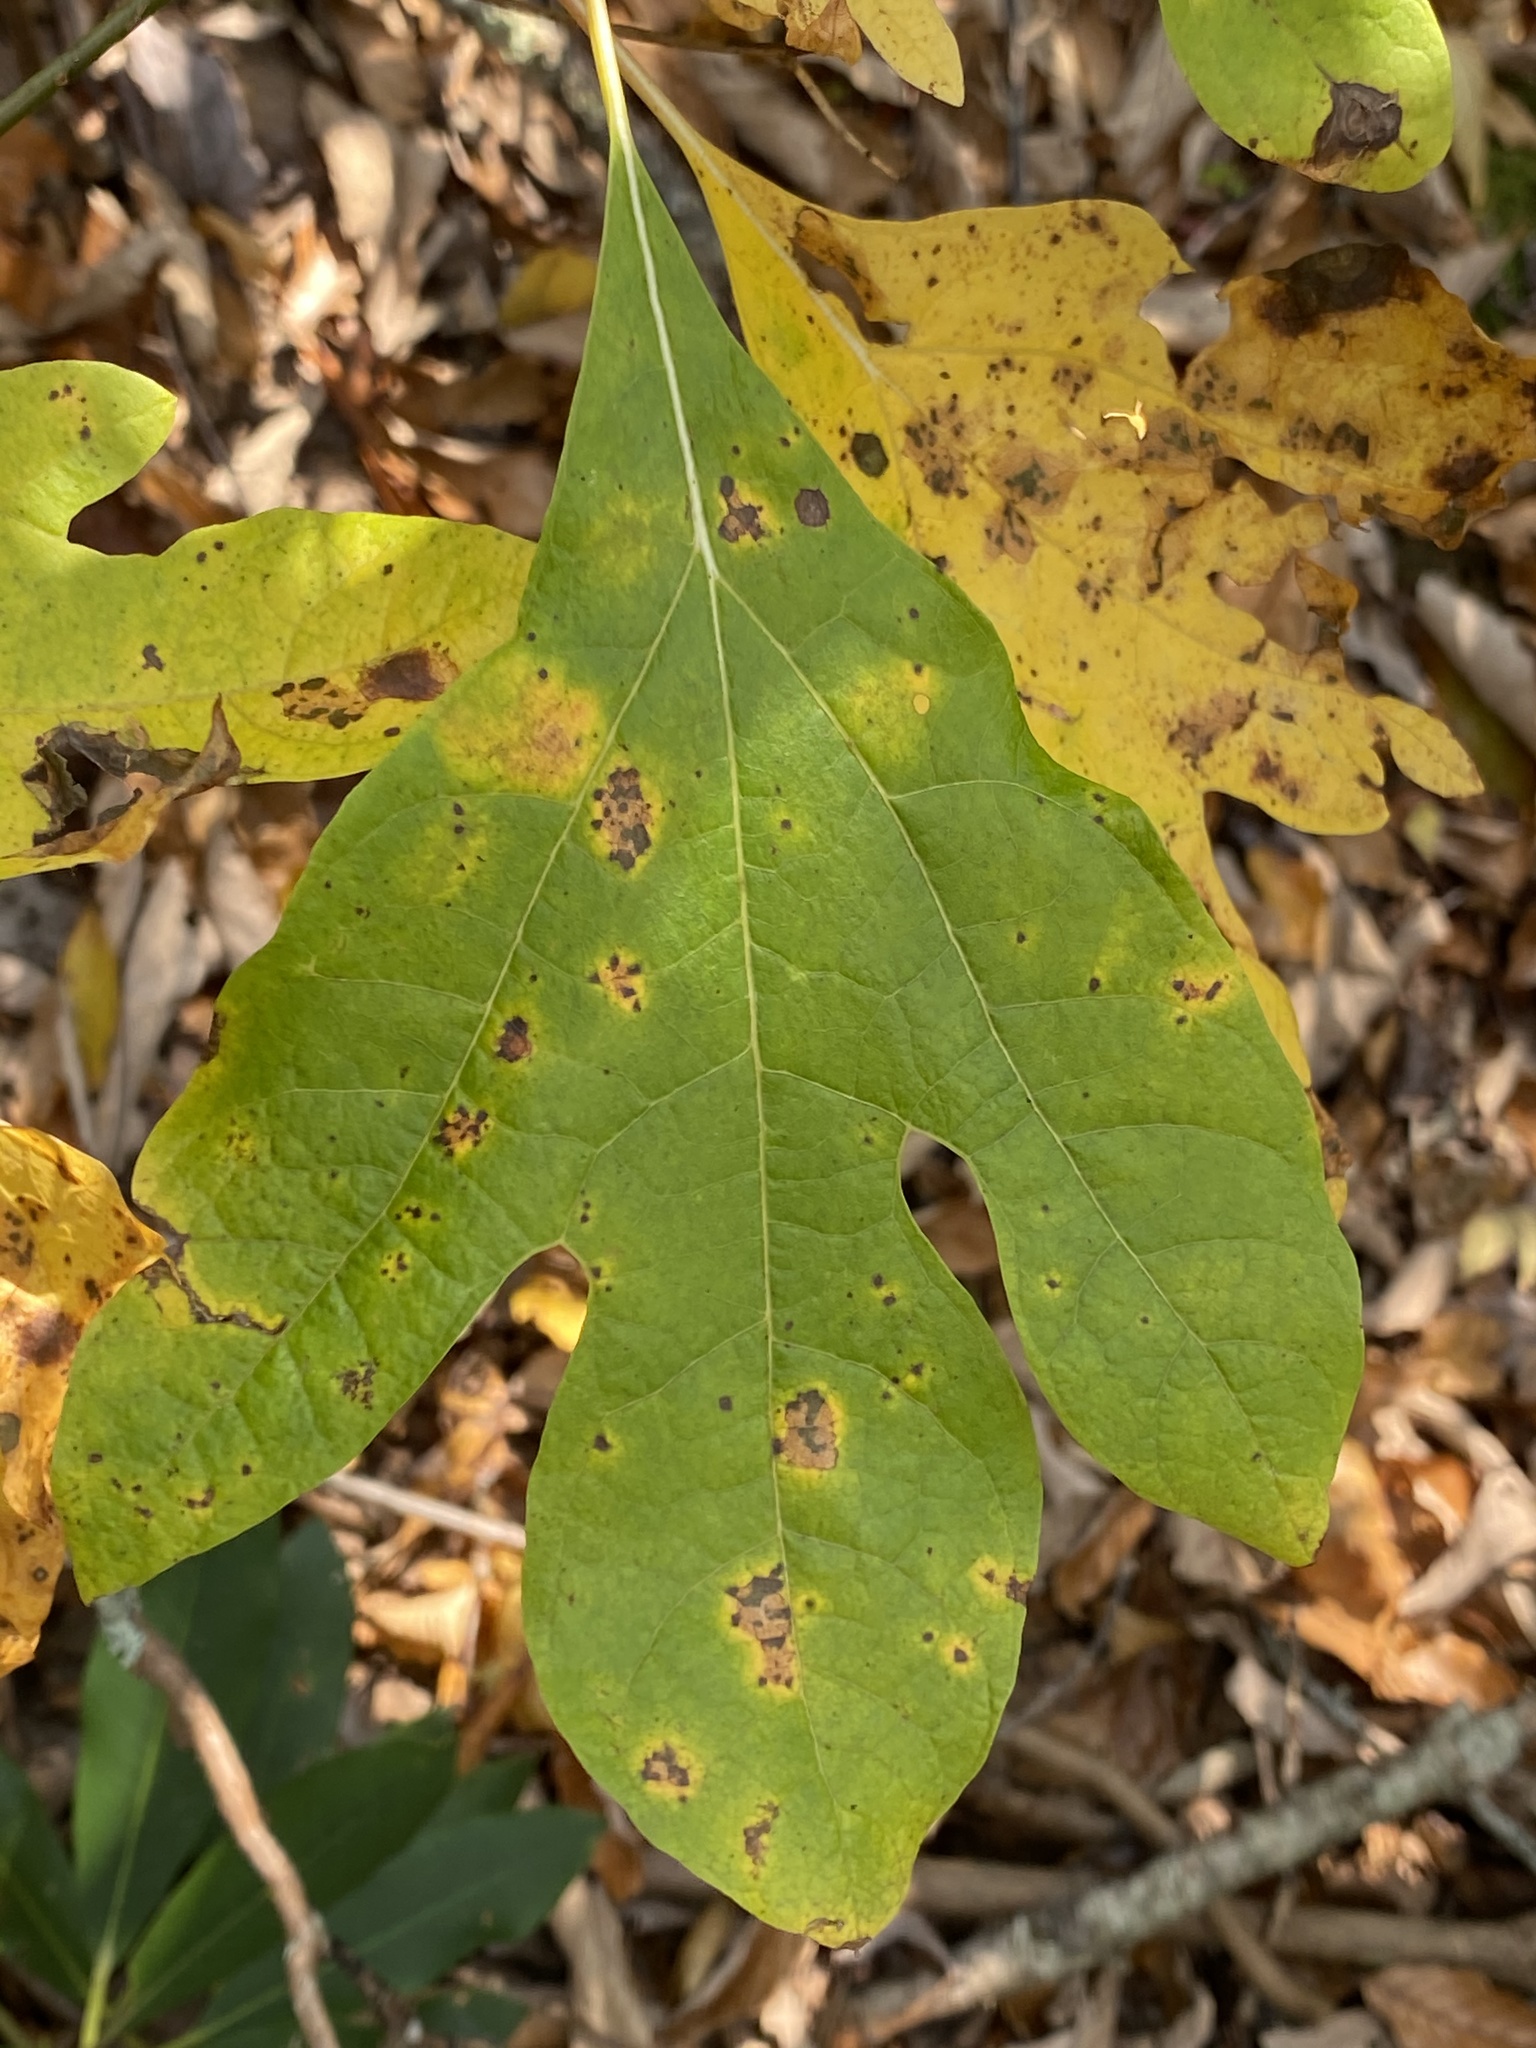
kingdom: Plantae
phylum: Tracheophyta
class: Magnoliopsida
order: Laurales
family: Lauraceae
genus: Sassafras
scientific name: Sassafras albidum
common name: Sassafras
